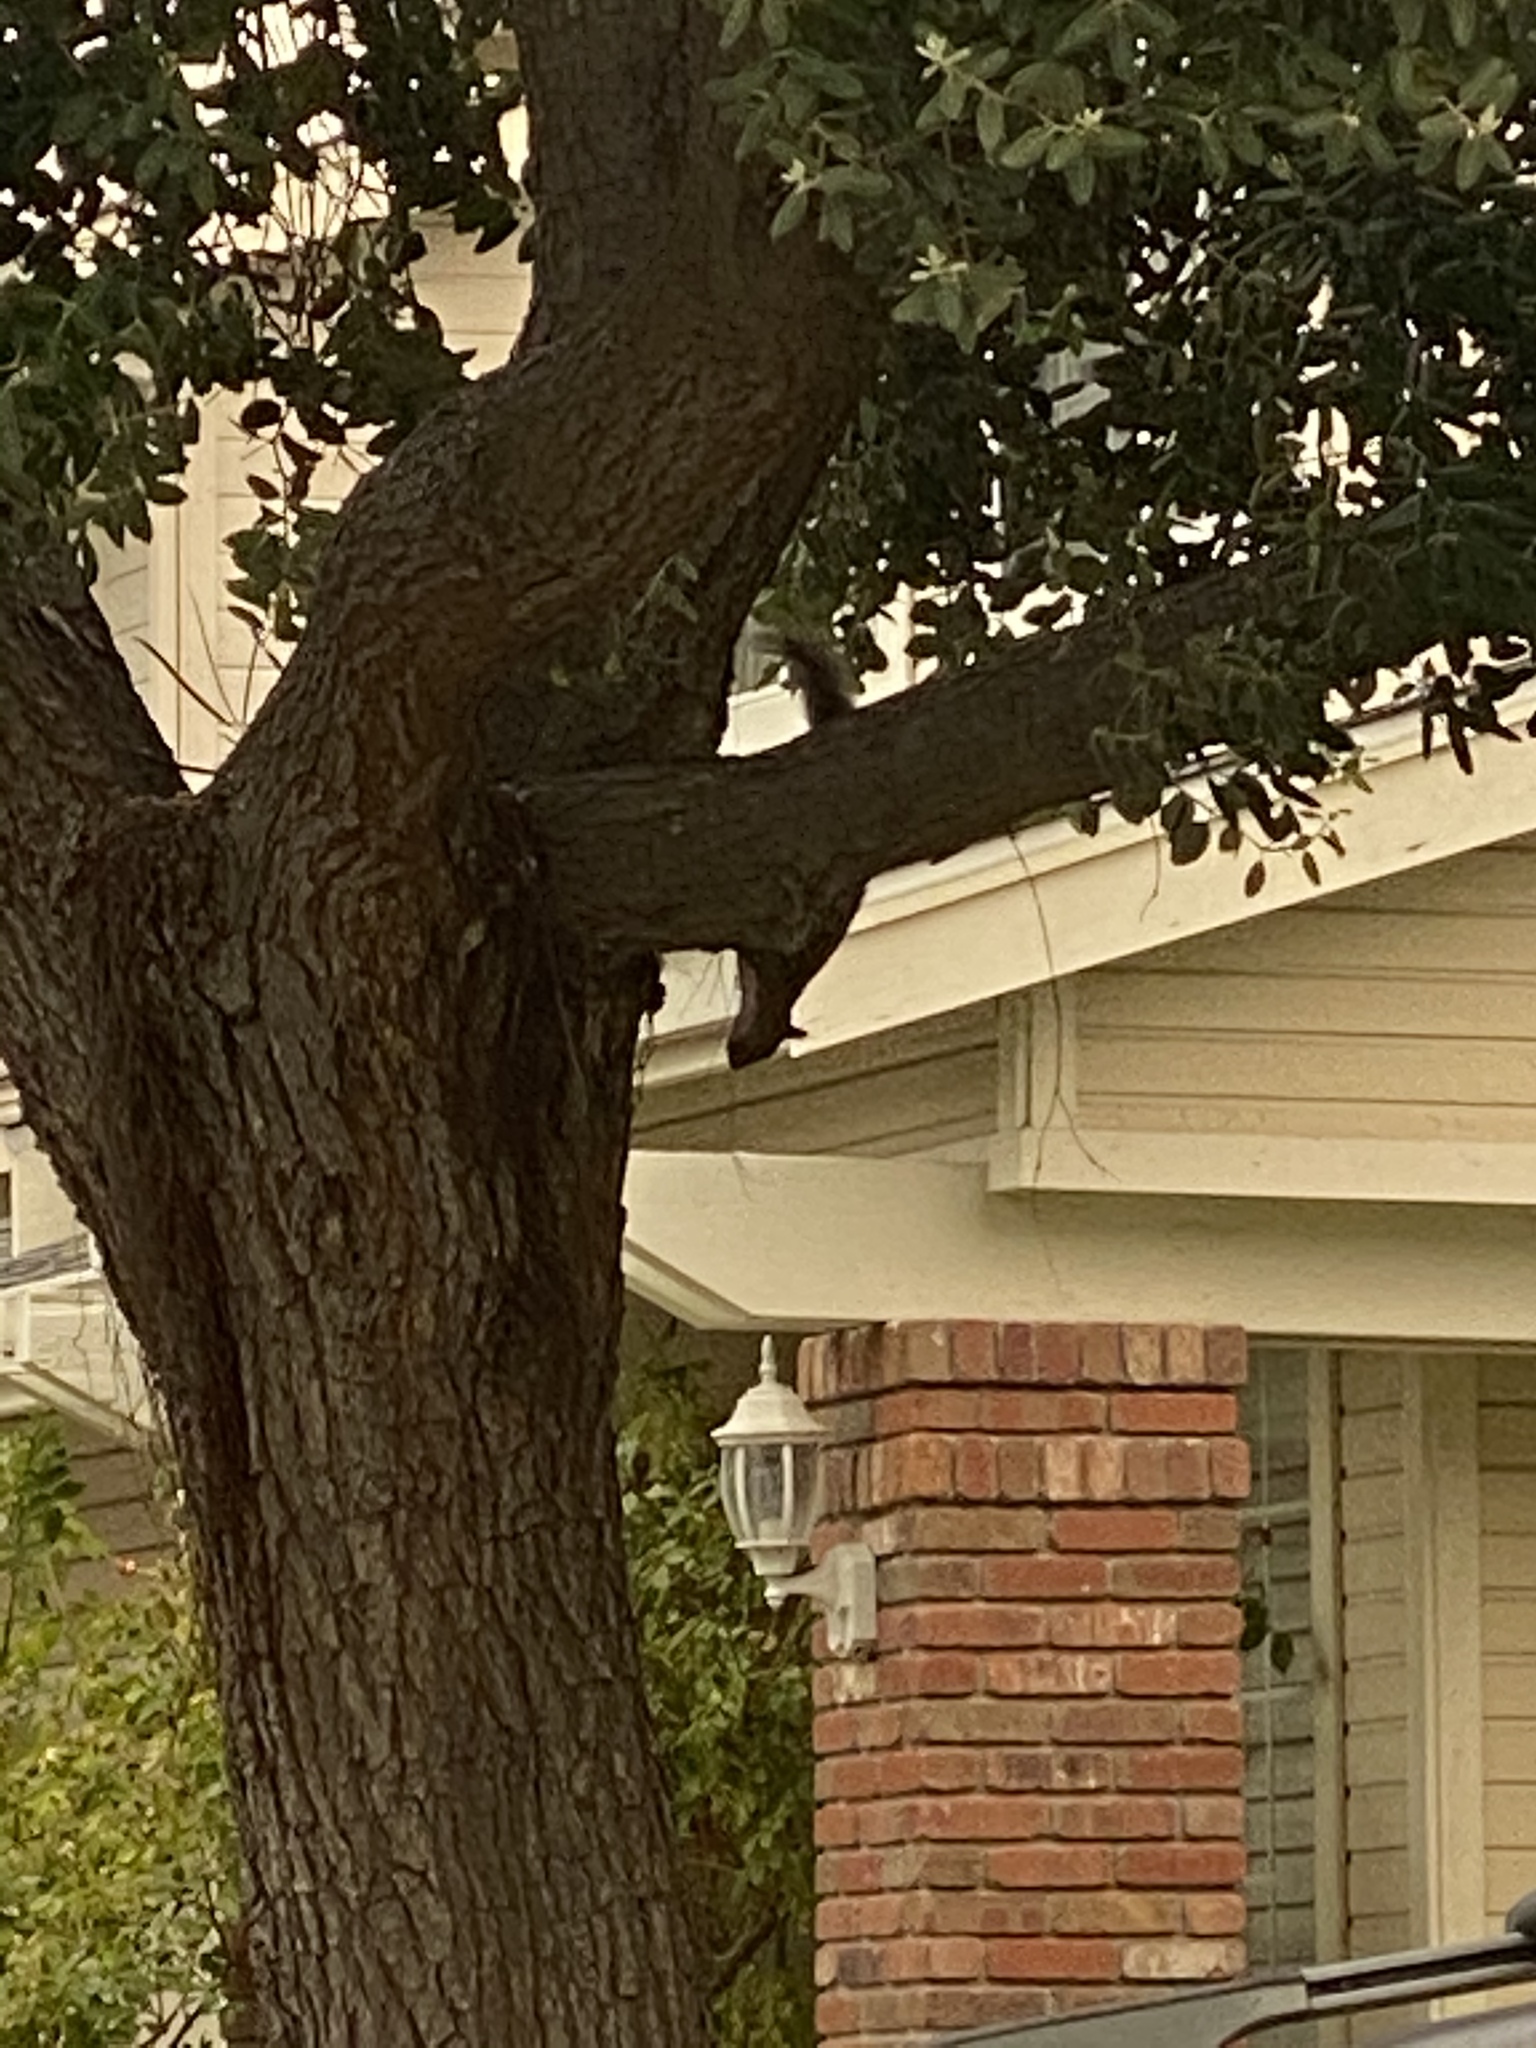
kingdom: Animalia
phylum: Chordata
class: Mammalia
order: Rodentia
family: Sciuridae
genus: Sciurus
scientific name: Sciurus carolinensis
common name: Eastern gray squirrel
